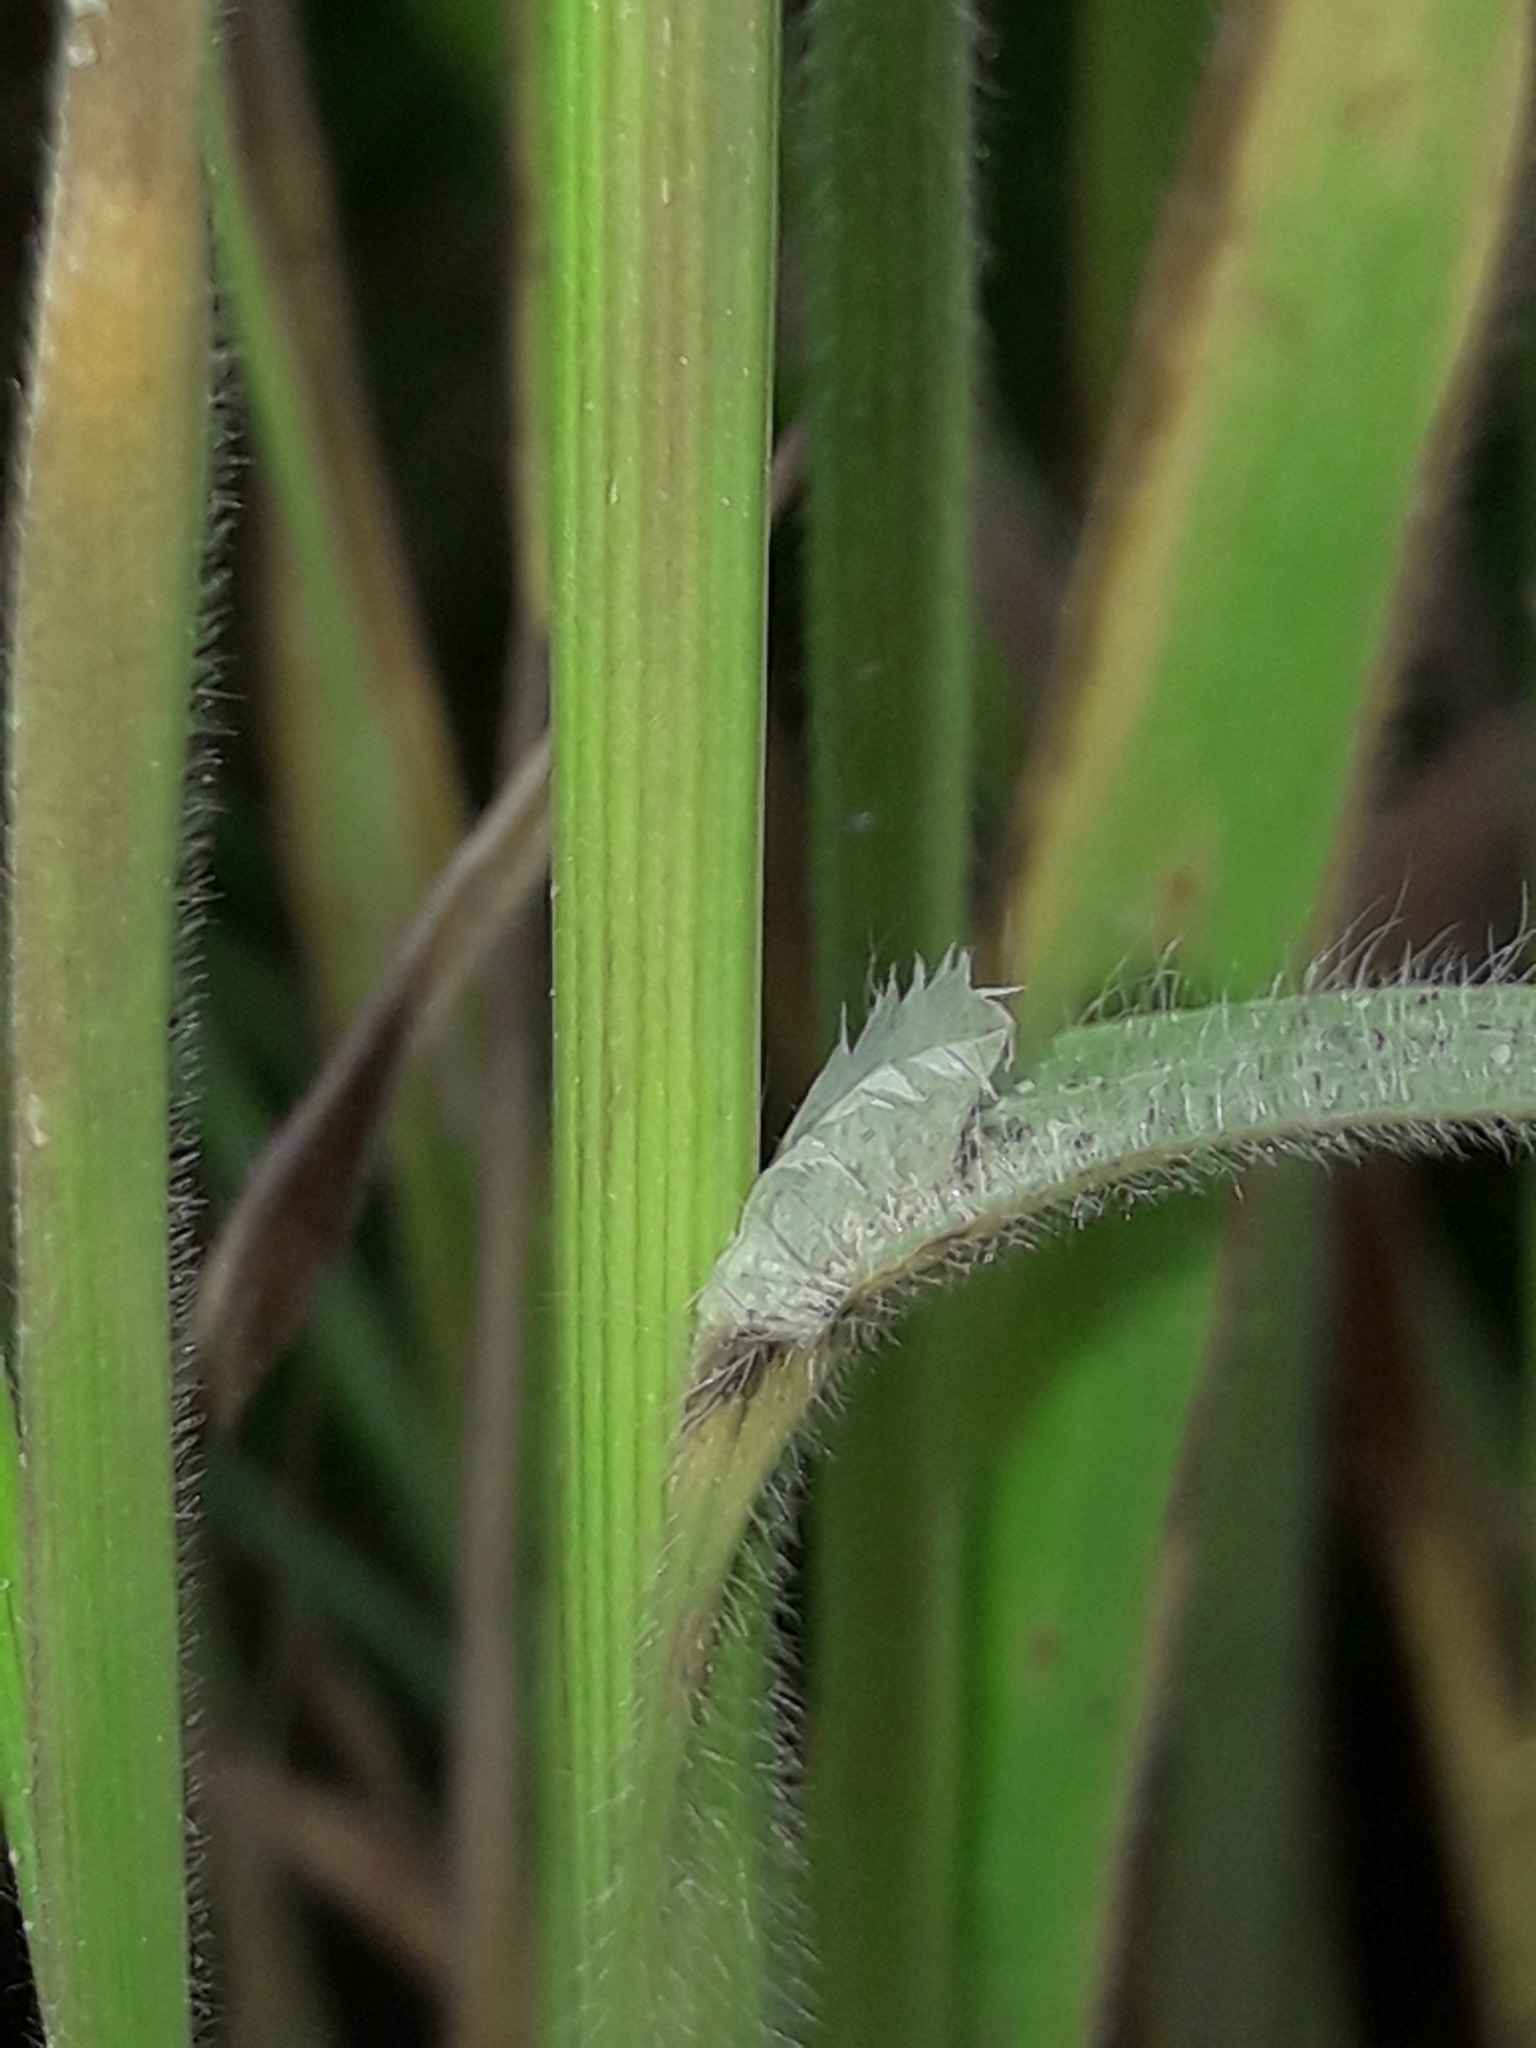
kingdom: Plantae
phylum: Tracheophyta
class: Liliopsida
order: Poales
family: Poaceae
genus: Bromus
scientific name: Bromus diandrus
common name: Ripgut brome
